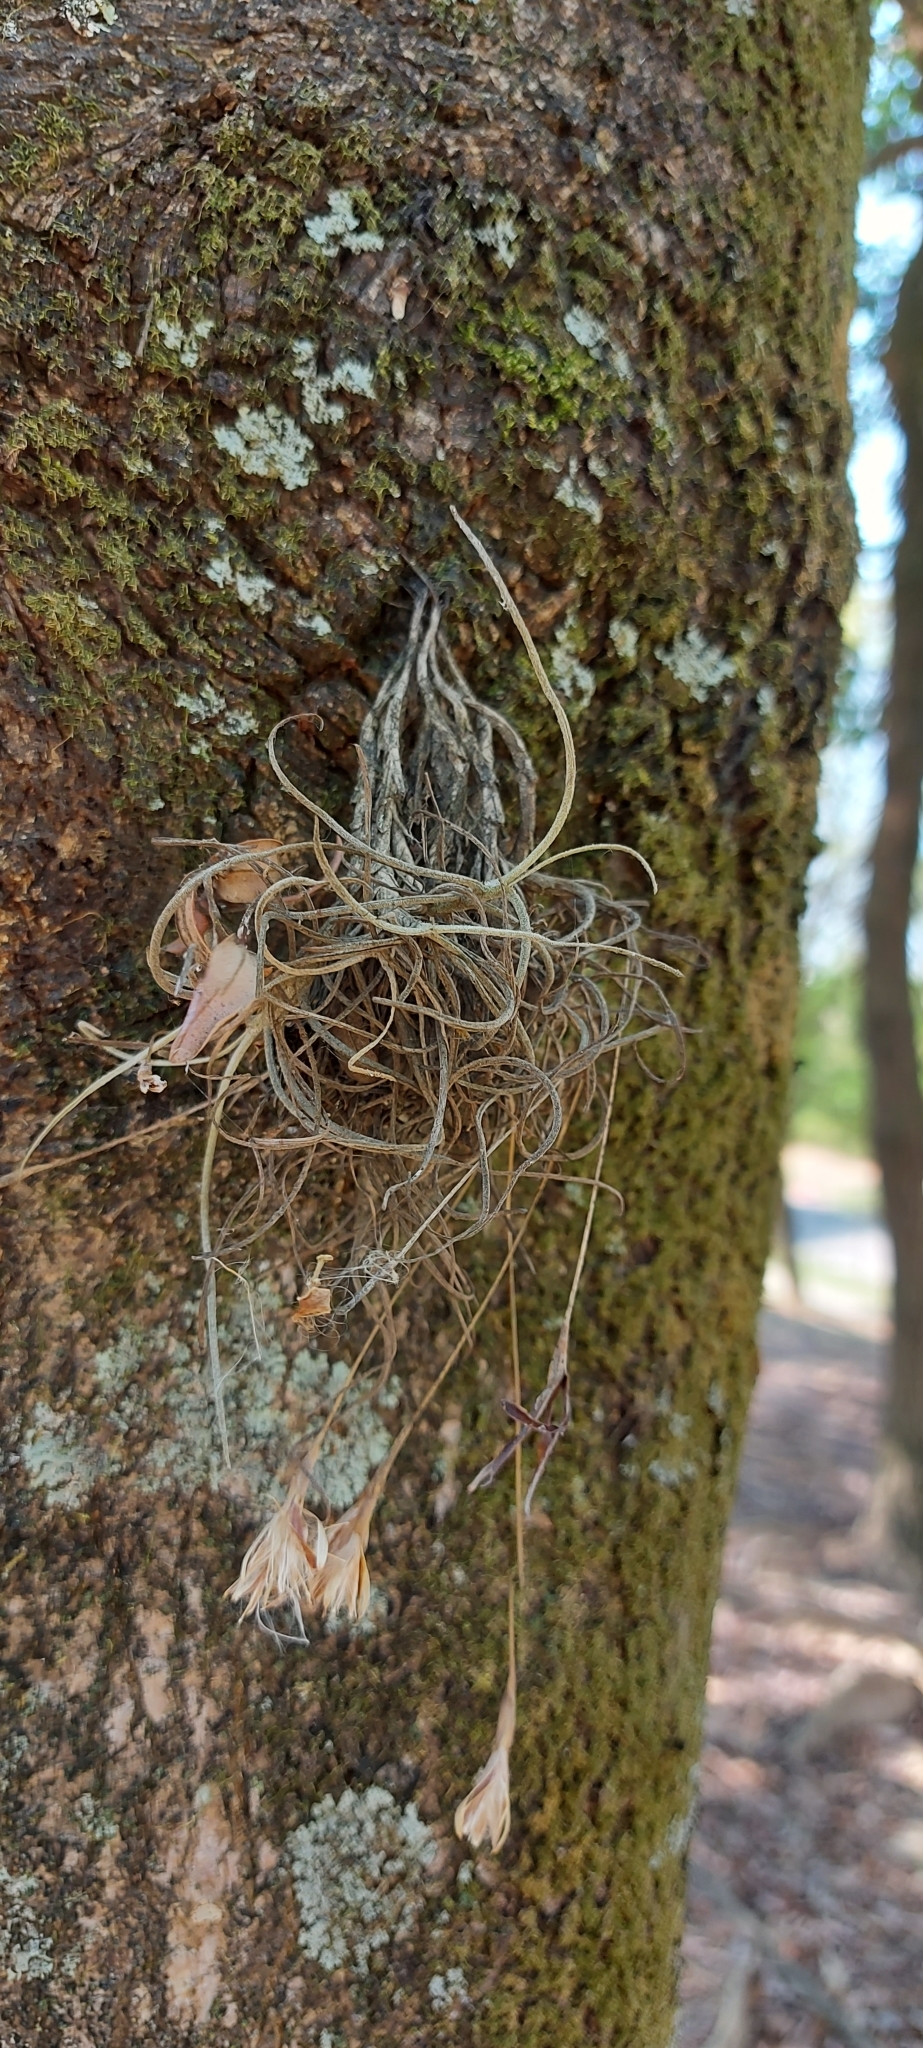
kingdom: Plantae
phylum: Tracheophyta
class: Liliopsida
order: Poales
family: Bromeliaceae
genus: Tillandsia
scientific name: Tillandsia recurvata
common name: Small ballmoss
